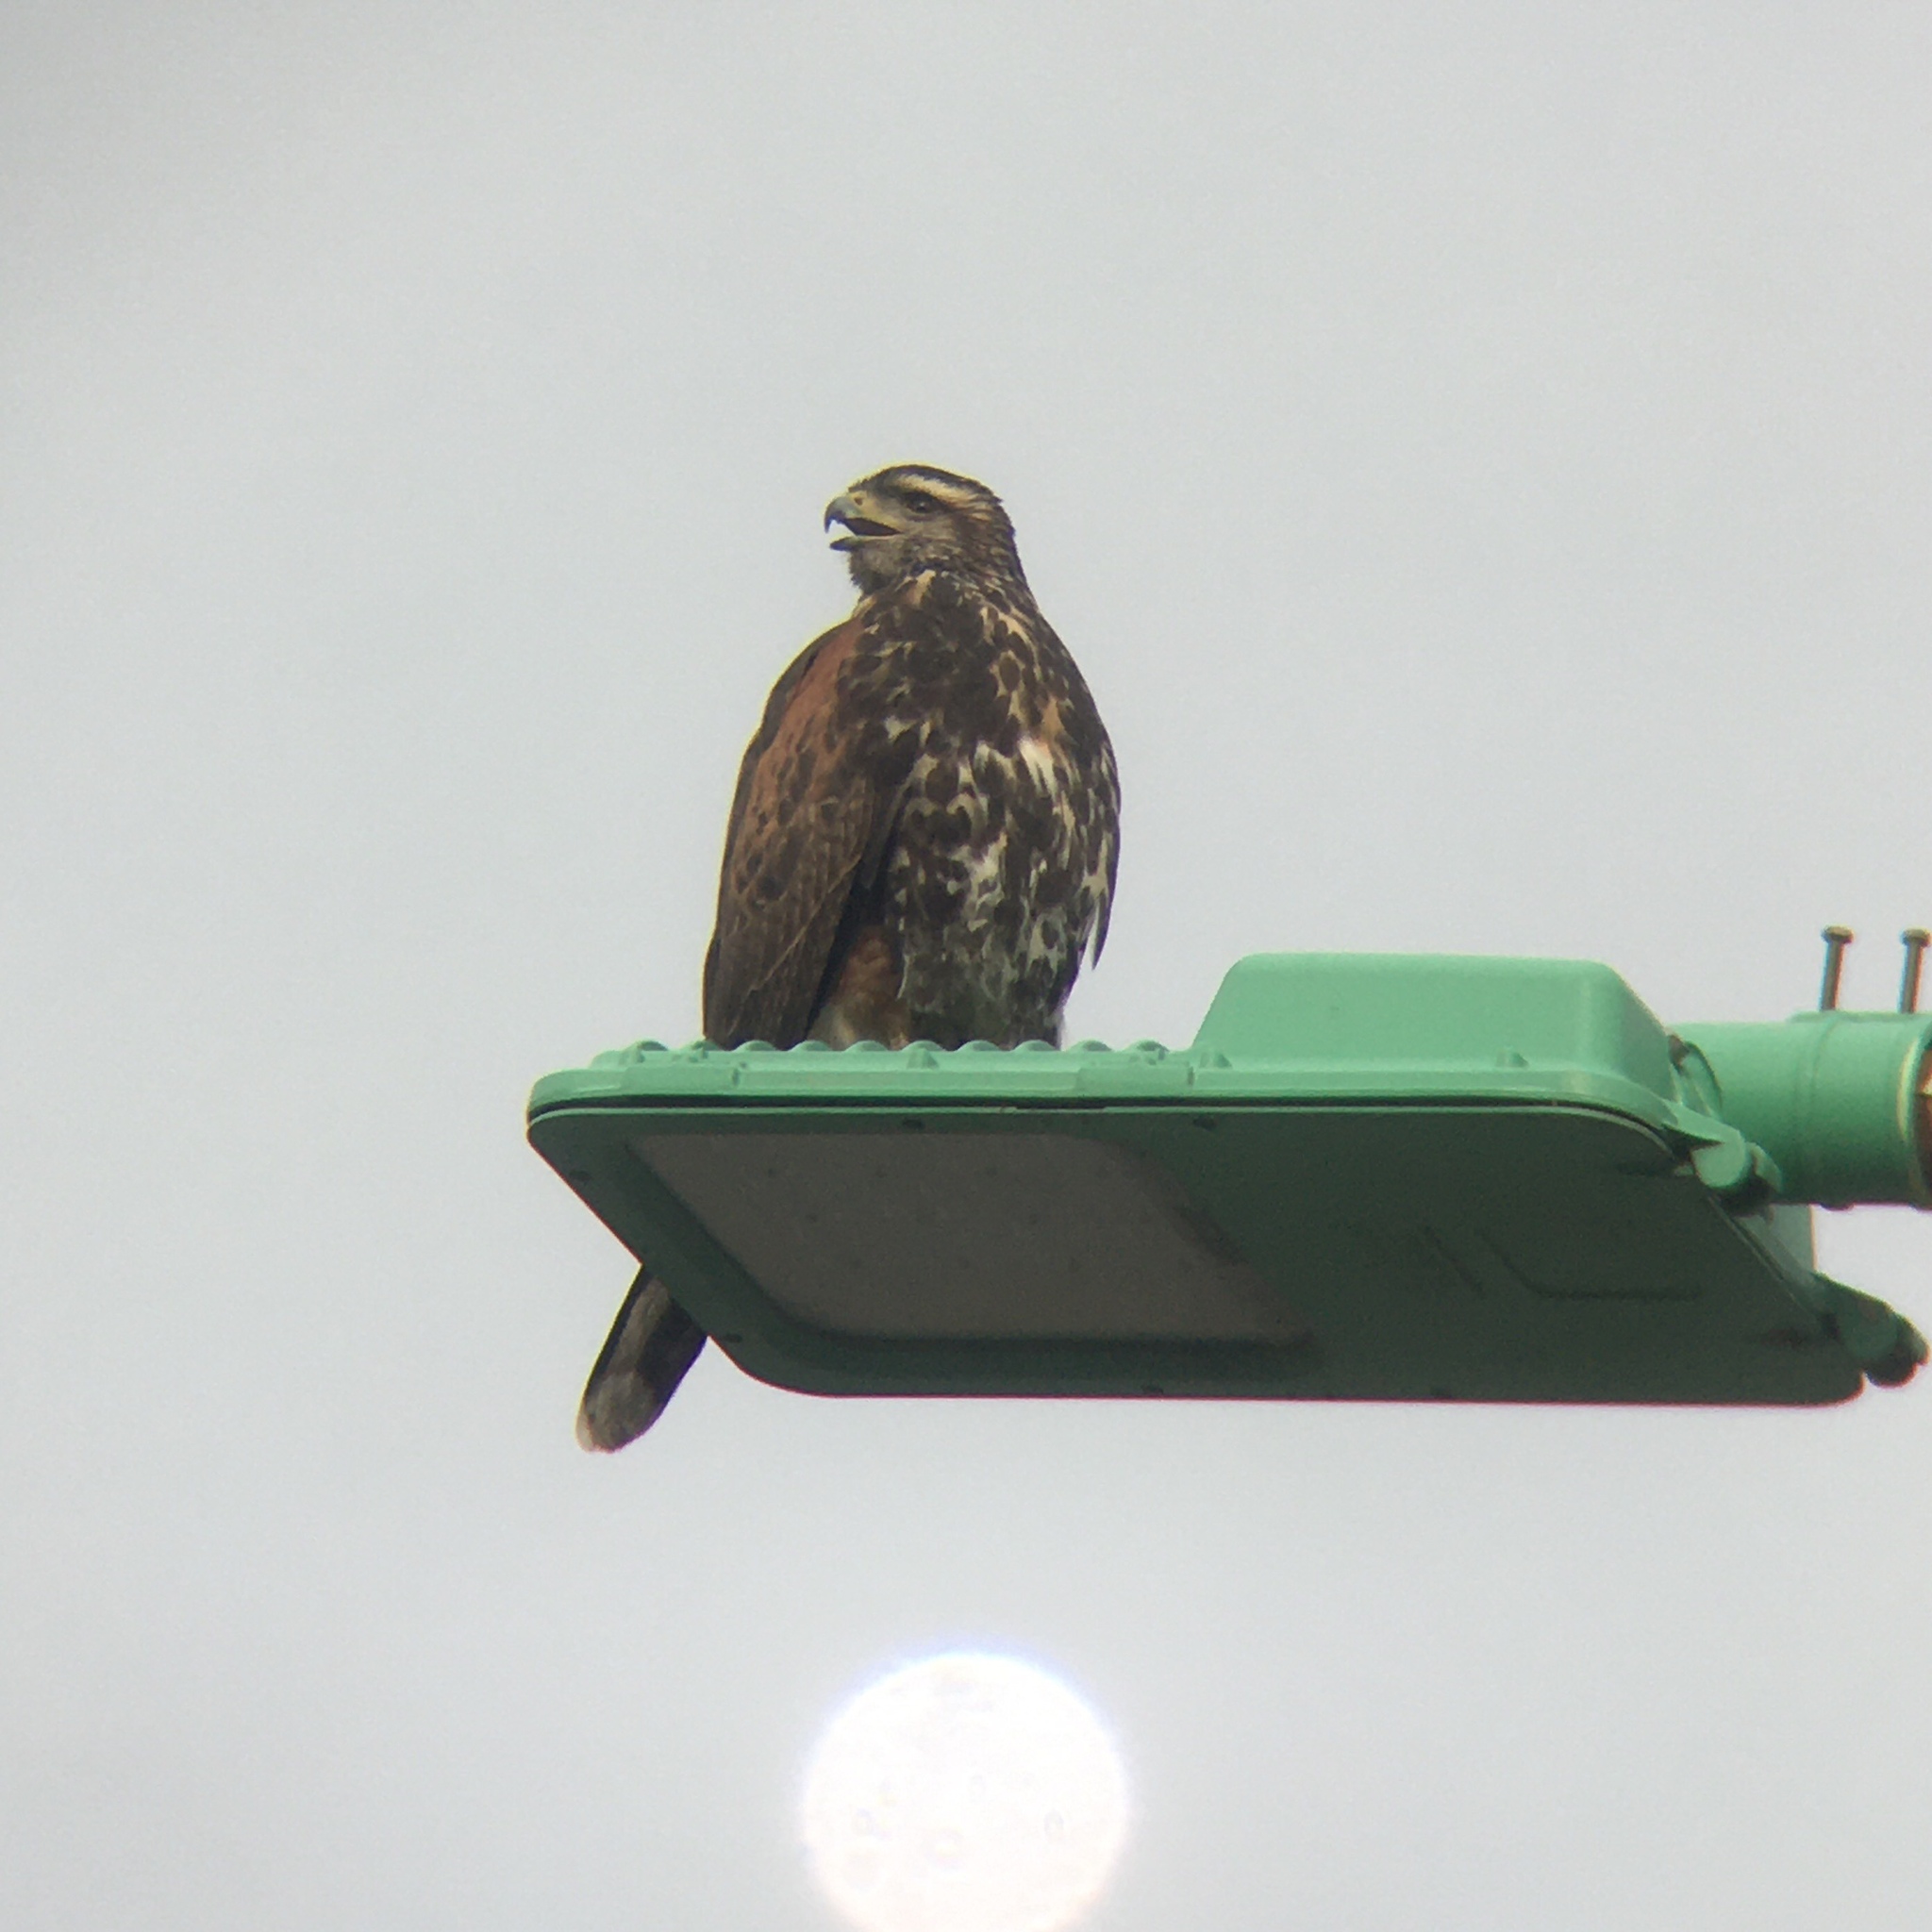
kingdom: Animalia
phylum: Chordata
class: Aves
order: Accipitriformes
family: Accipitridae
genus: Parabuteo
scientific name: Parabuteo unicinctus
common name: Harris's hawk
